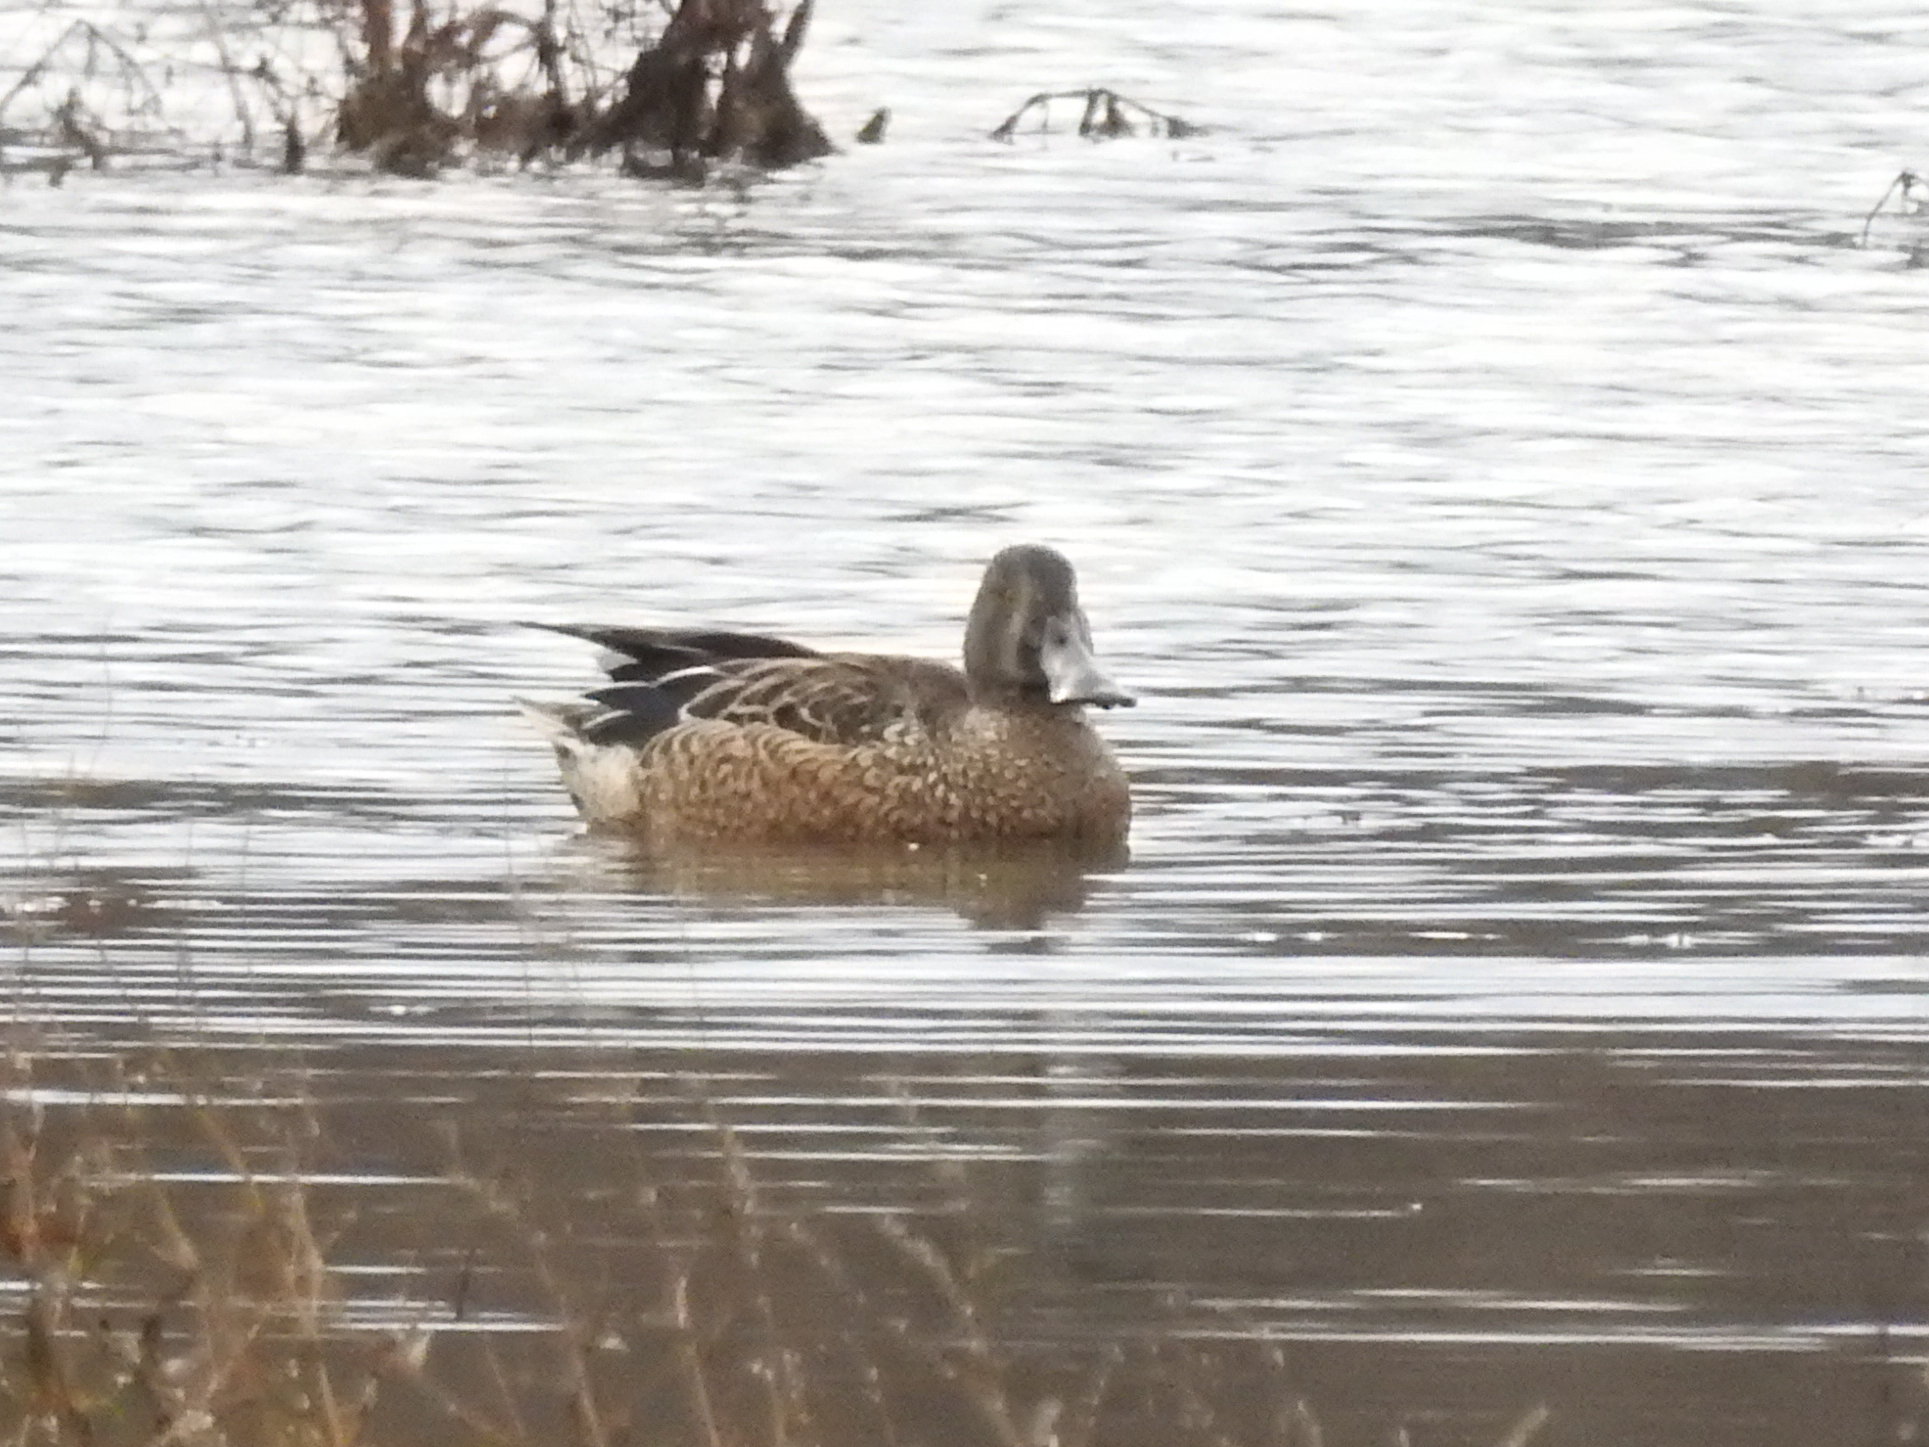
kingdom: Animalia
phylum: Chordata
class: Aves
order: Anseriformes
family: Anatidae
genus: Spatula
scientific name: Spatula clypeata
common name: Northern shoveler
